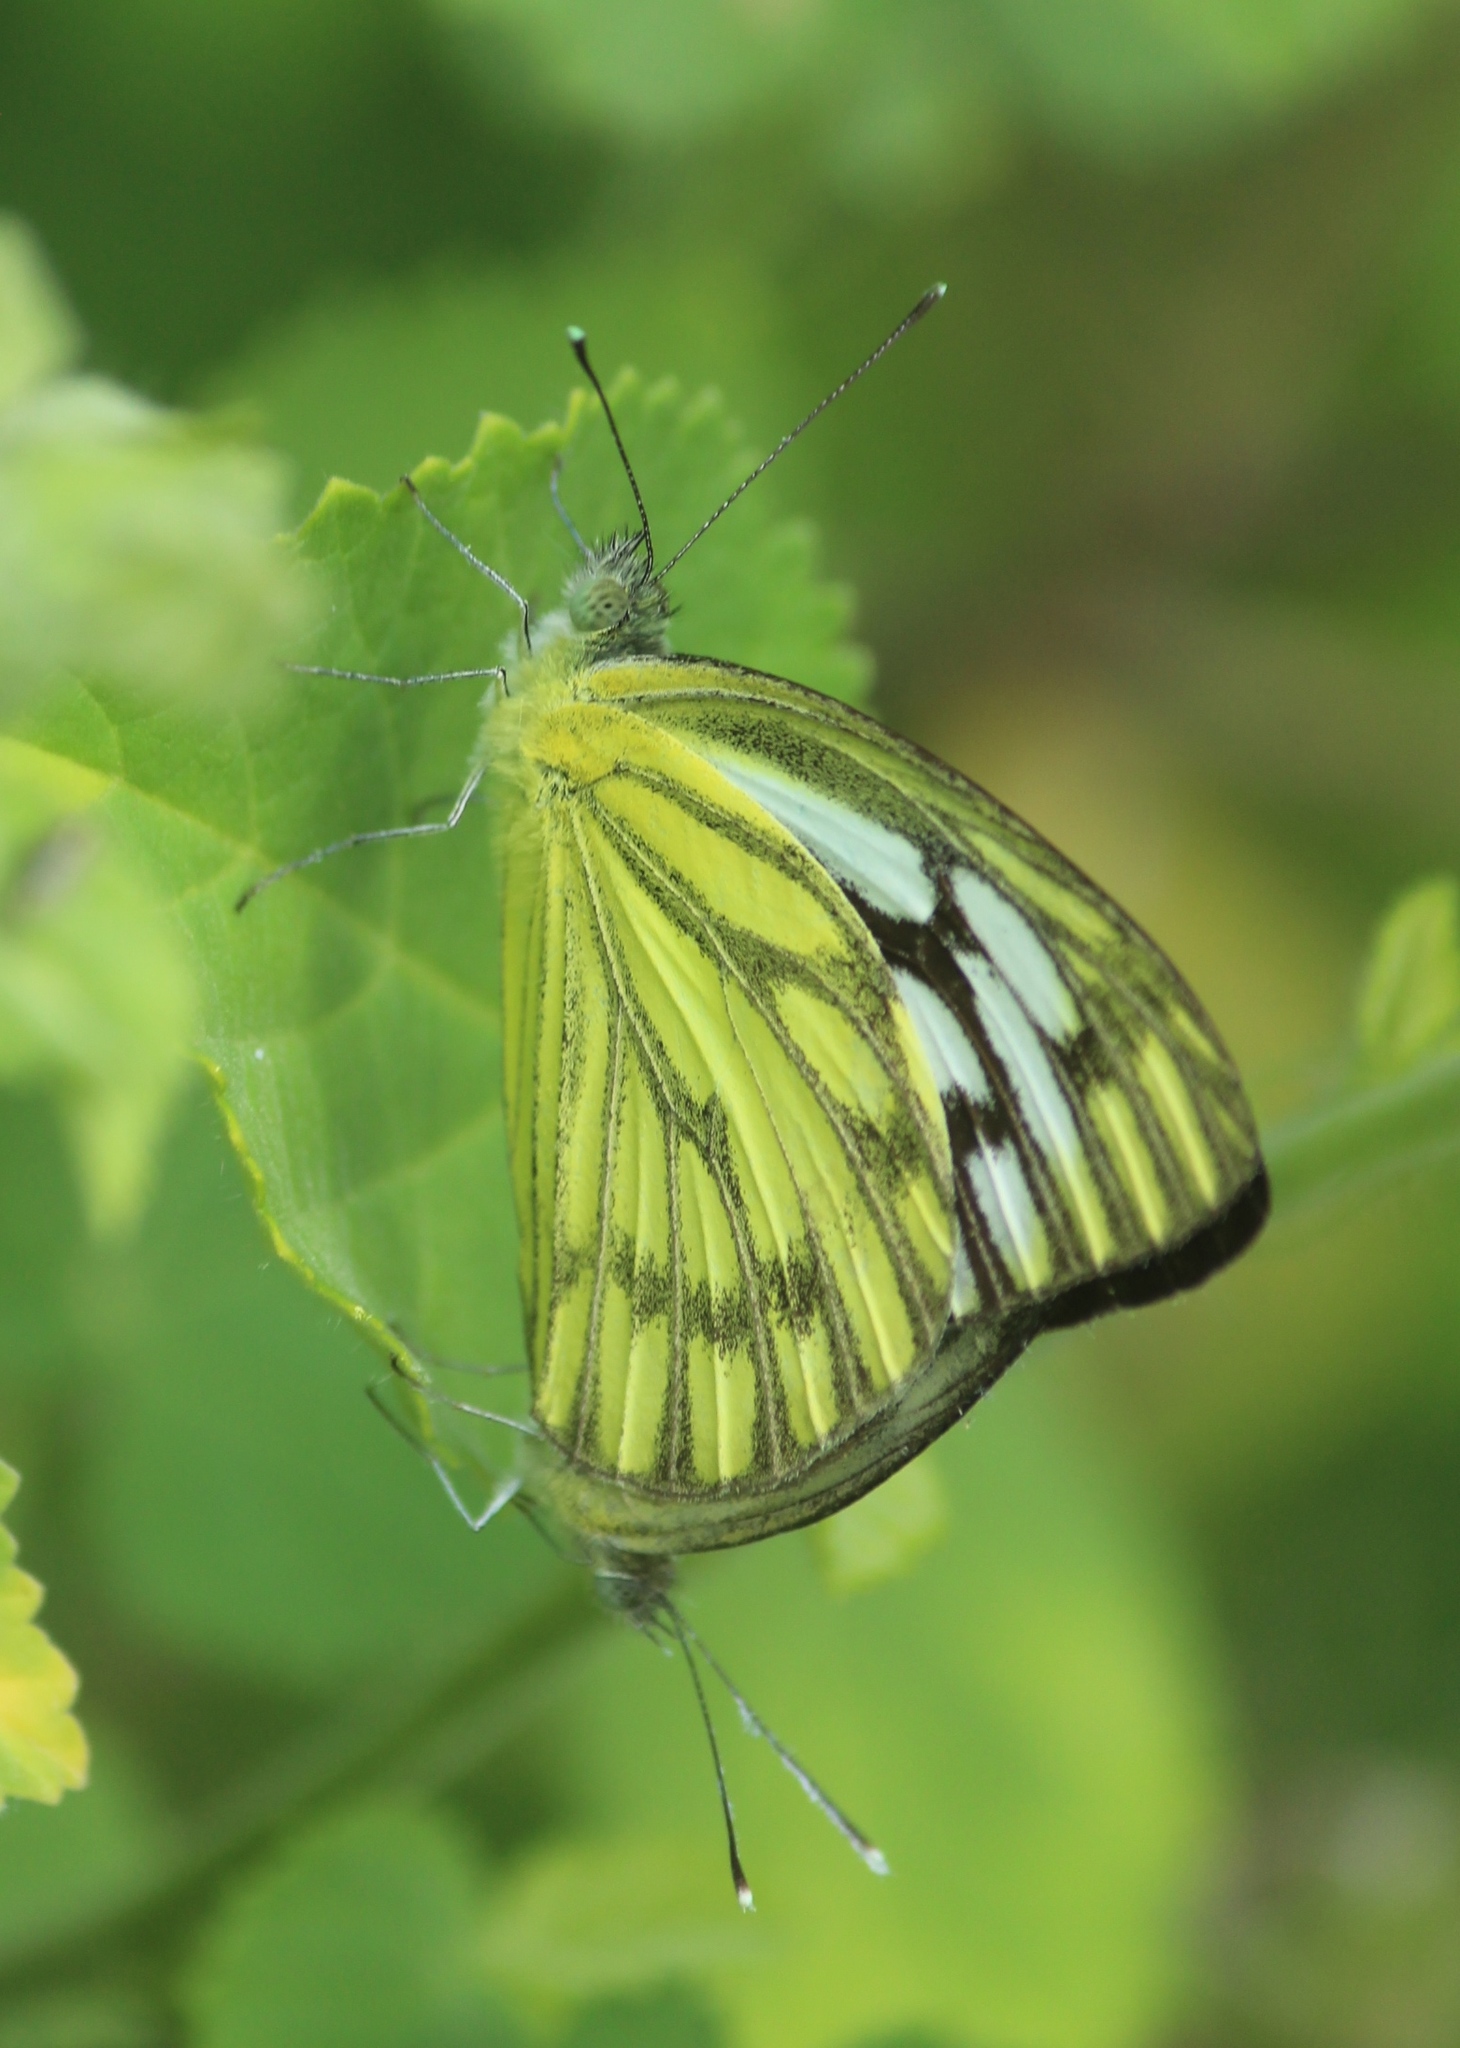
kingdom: Animalia
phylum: Arthropoda
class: Insecta
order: Lepidoptera
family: Pieridae
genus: Cepora
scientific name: Cepora nerissa
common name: Common gull
